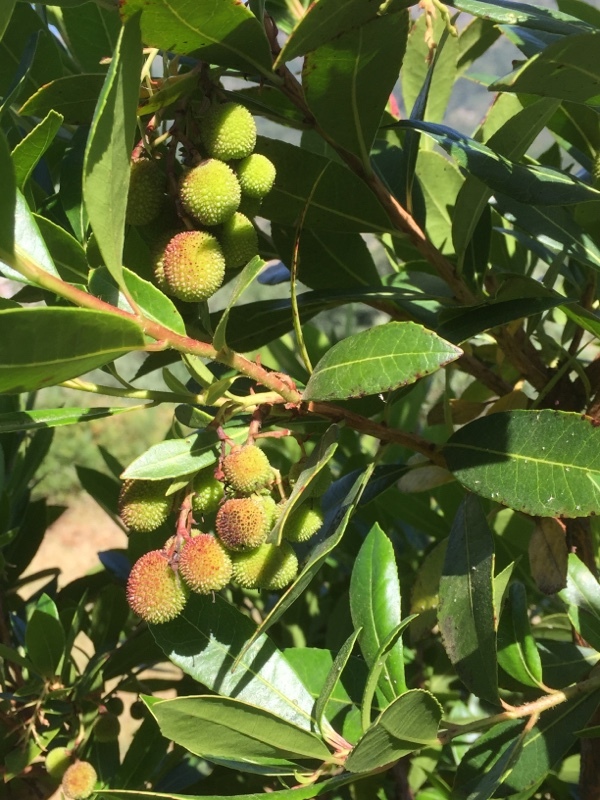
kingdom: Plantae
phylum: Tracheophyta
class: Magnoliopsida
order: Ericales
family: Ericaceae
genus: Arbutus
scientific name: Arbutus unedo
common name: Strawberry-tree
